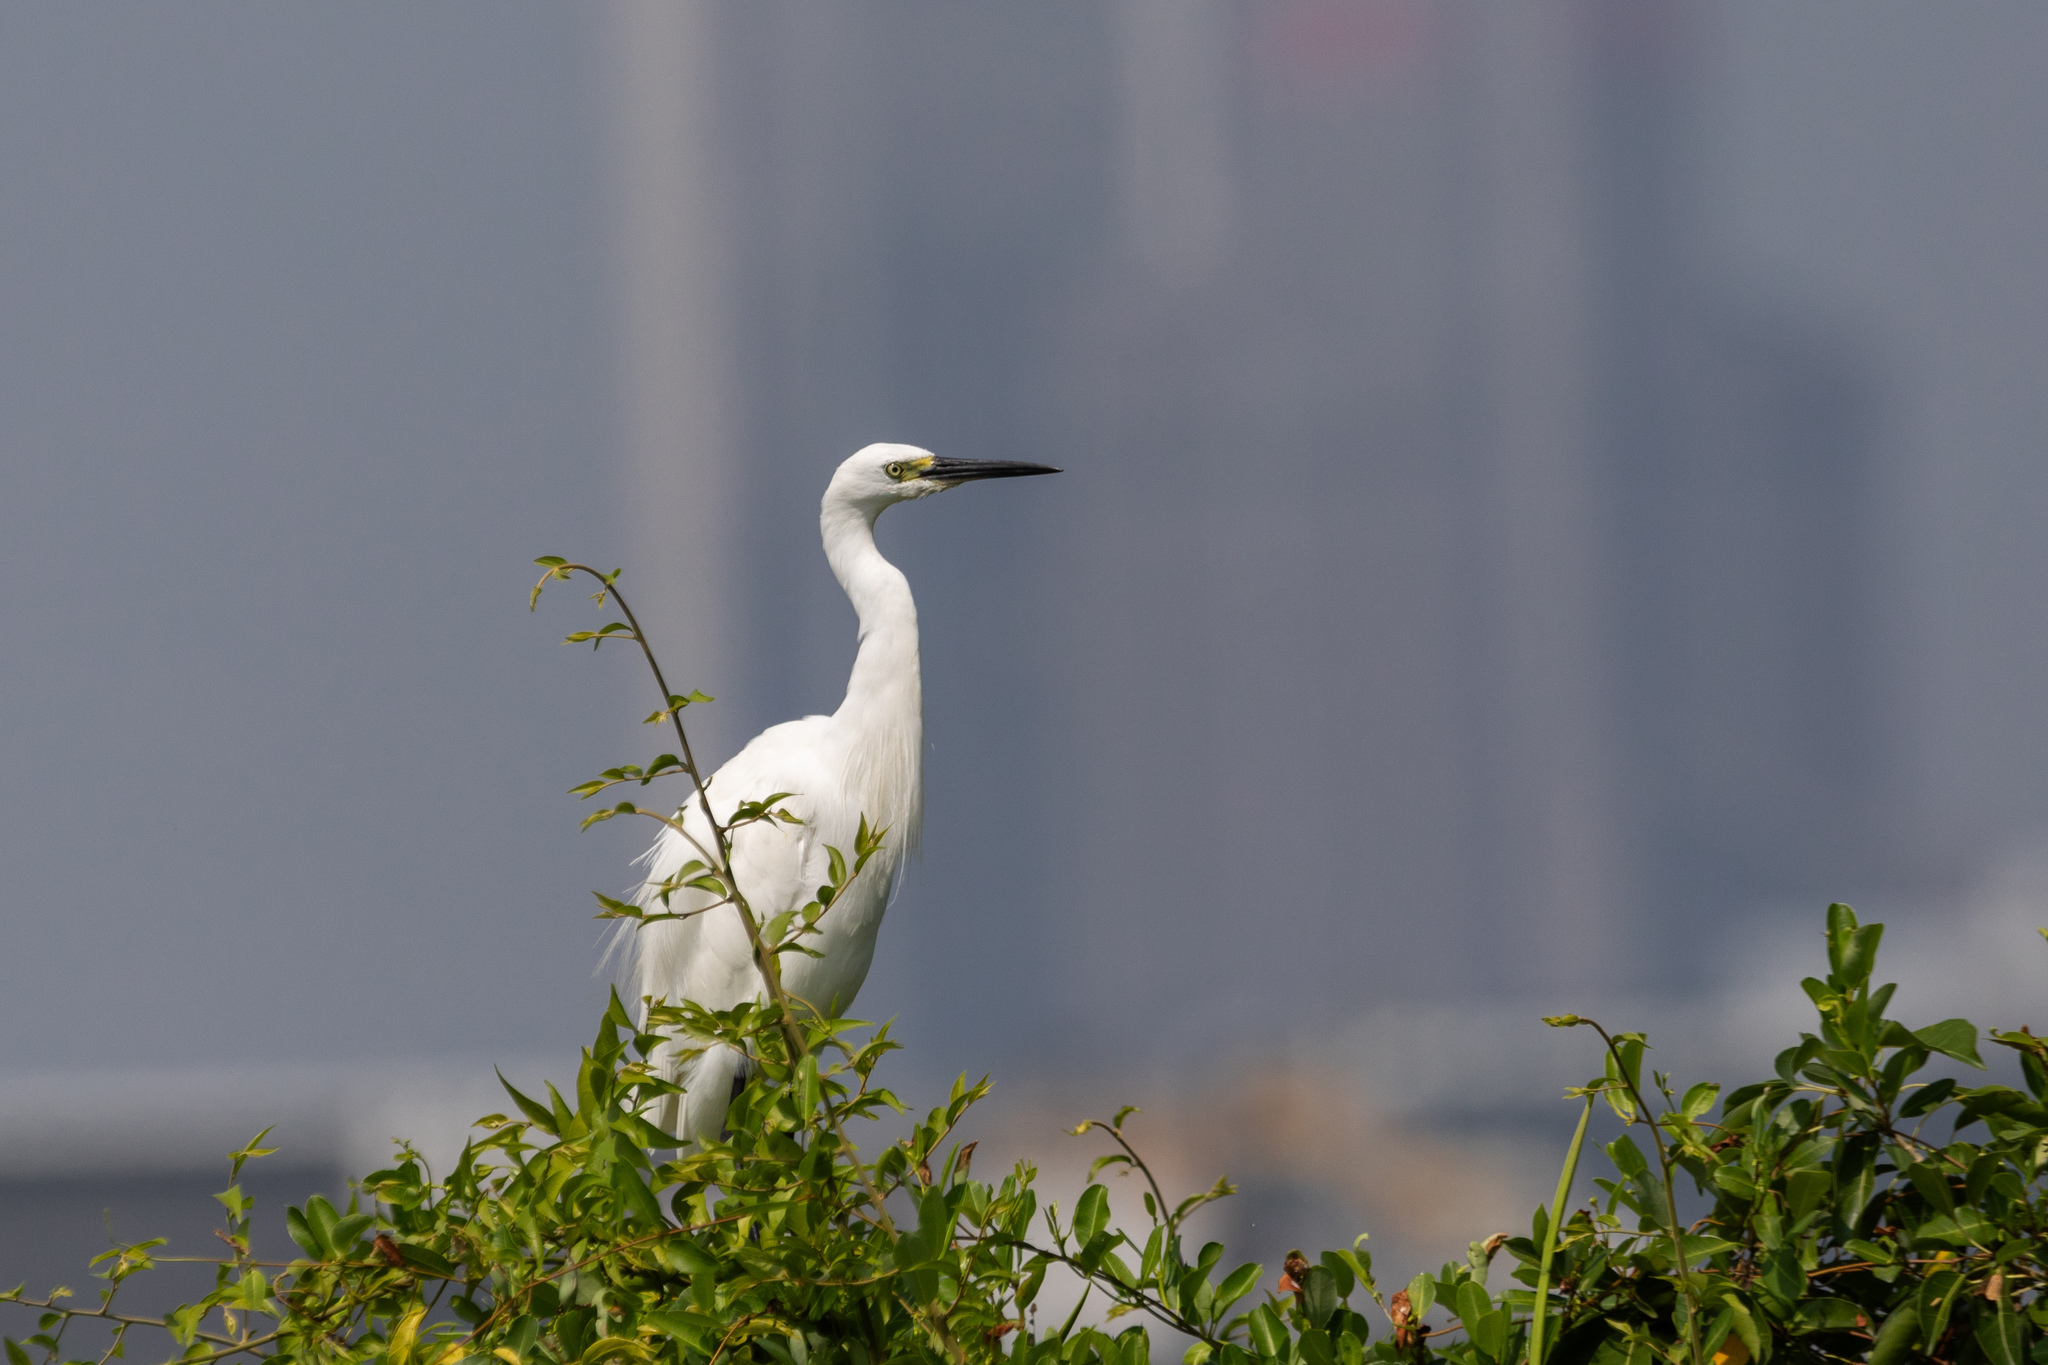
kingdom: Animalia
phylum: Chordata
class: Aves
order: Pelecaniformes
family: Ardeidae
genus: Egretta
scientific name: Egretta garzetta
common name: Little egret
